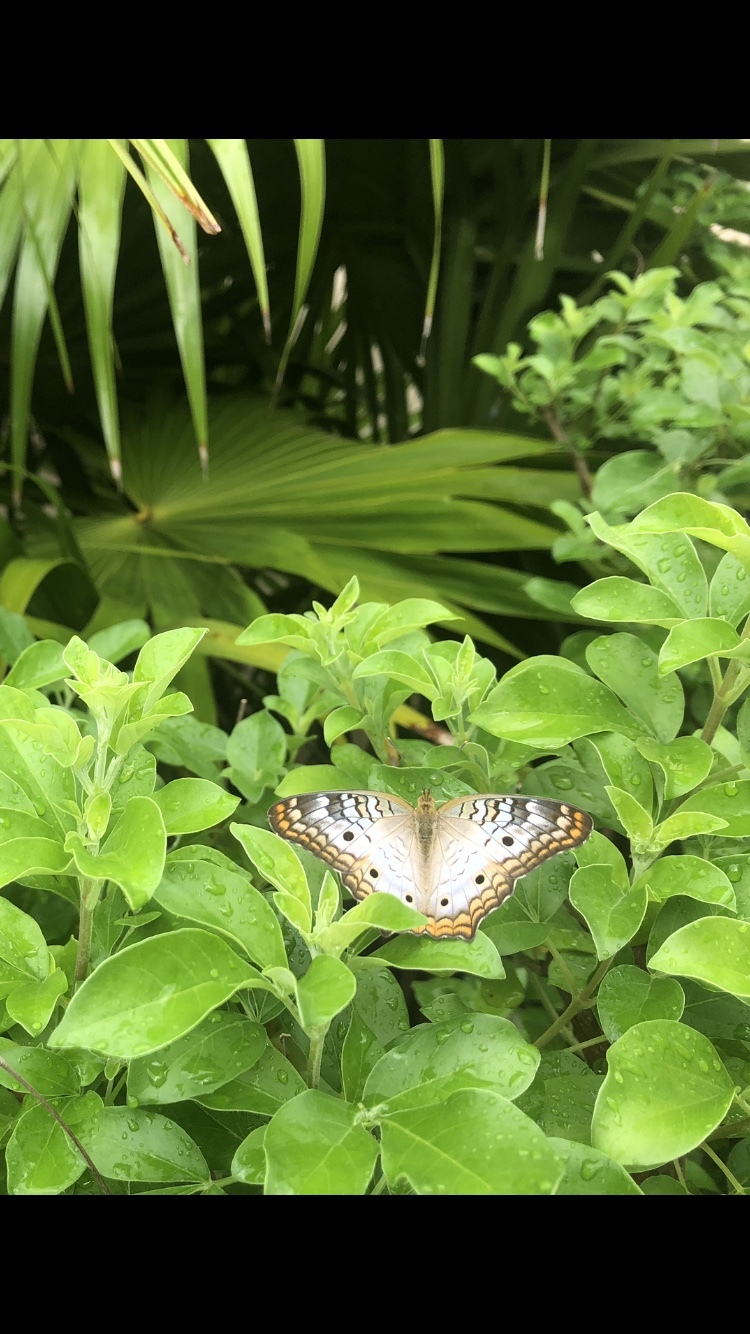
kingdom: Animalia
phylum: Arthropoda
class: Insecta
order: Lepidoptera
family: Nymphalidae
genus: Anartia
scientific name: Anartia jatrophae
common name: White peacock
